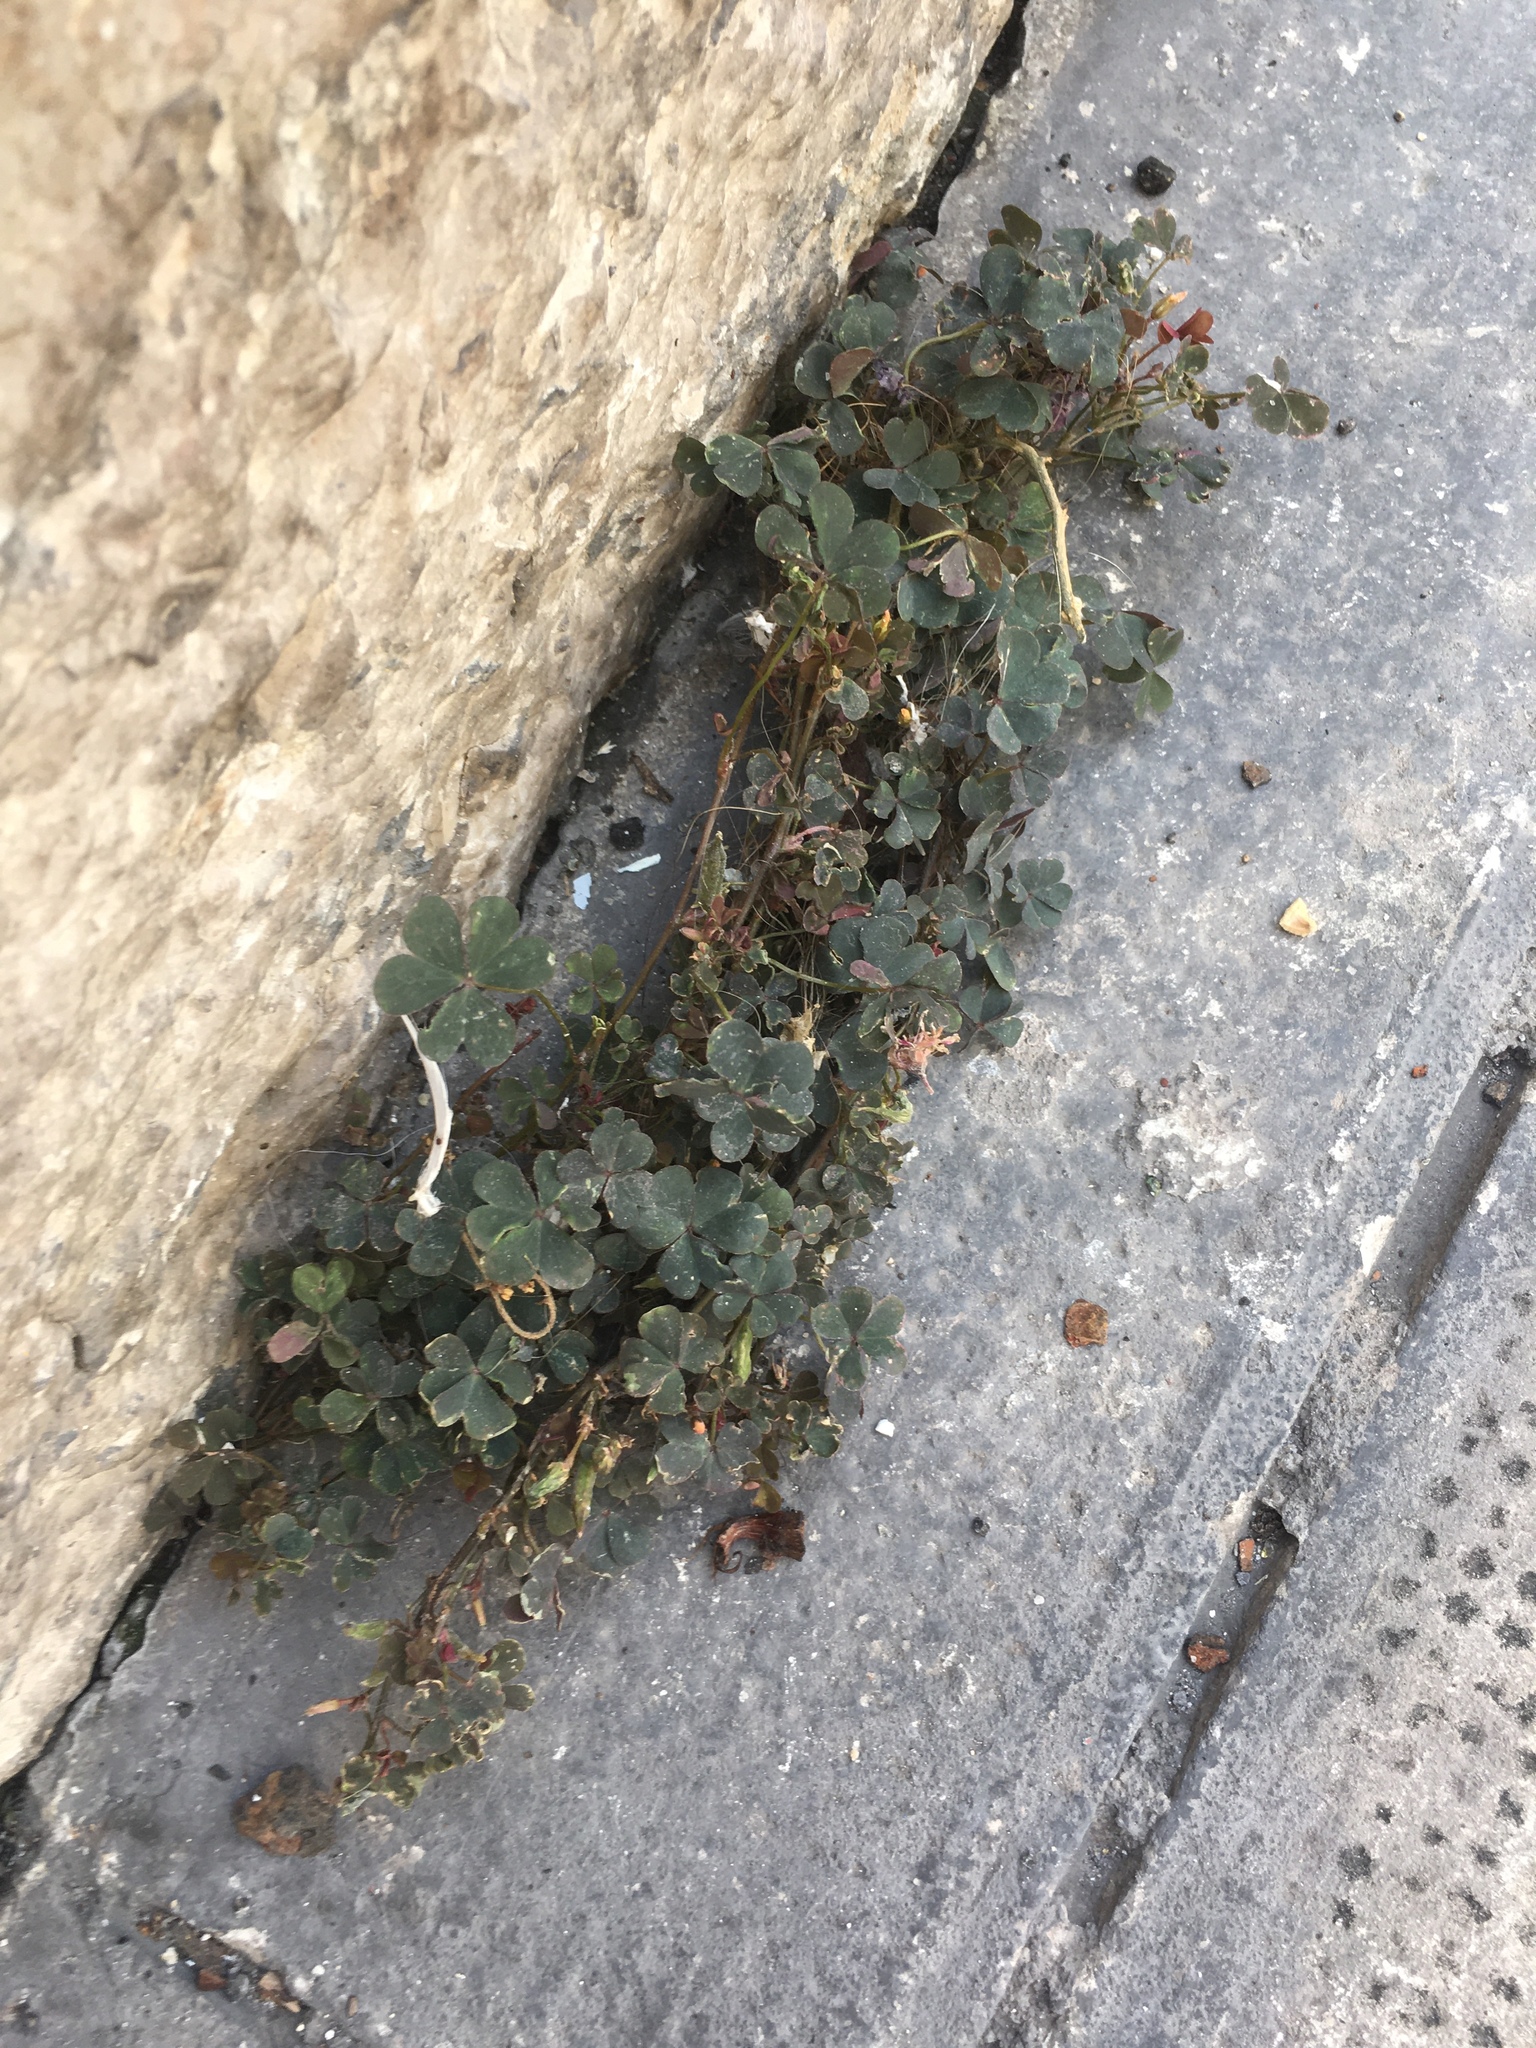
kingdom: Plantae
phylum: Tracheophyta
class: Magnoliopsida
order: Oxalidales
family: Oxalidaceae
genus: Oxalis
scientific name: Oxalis corniculata
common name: Procumbent yellow-sorrel
